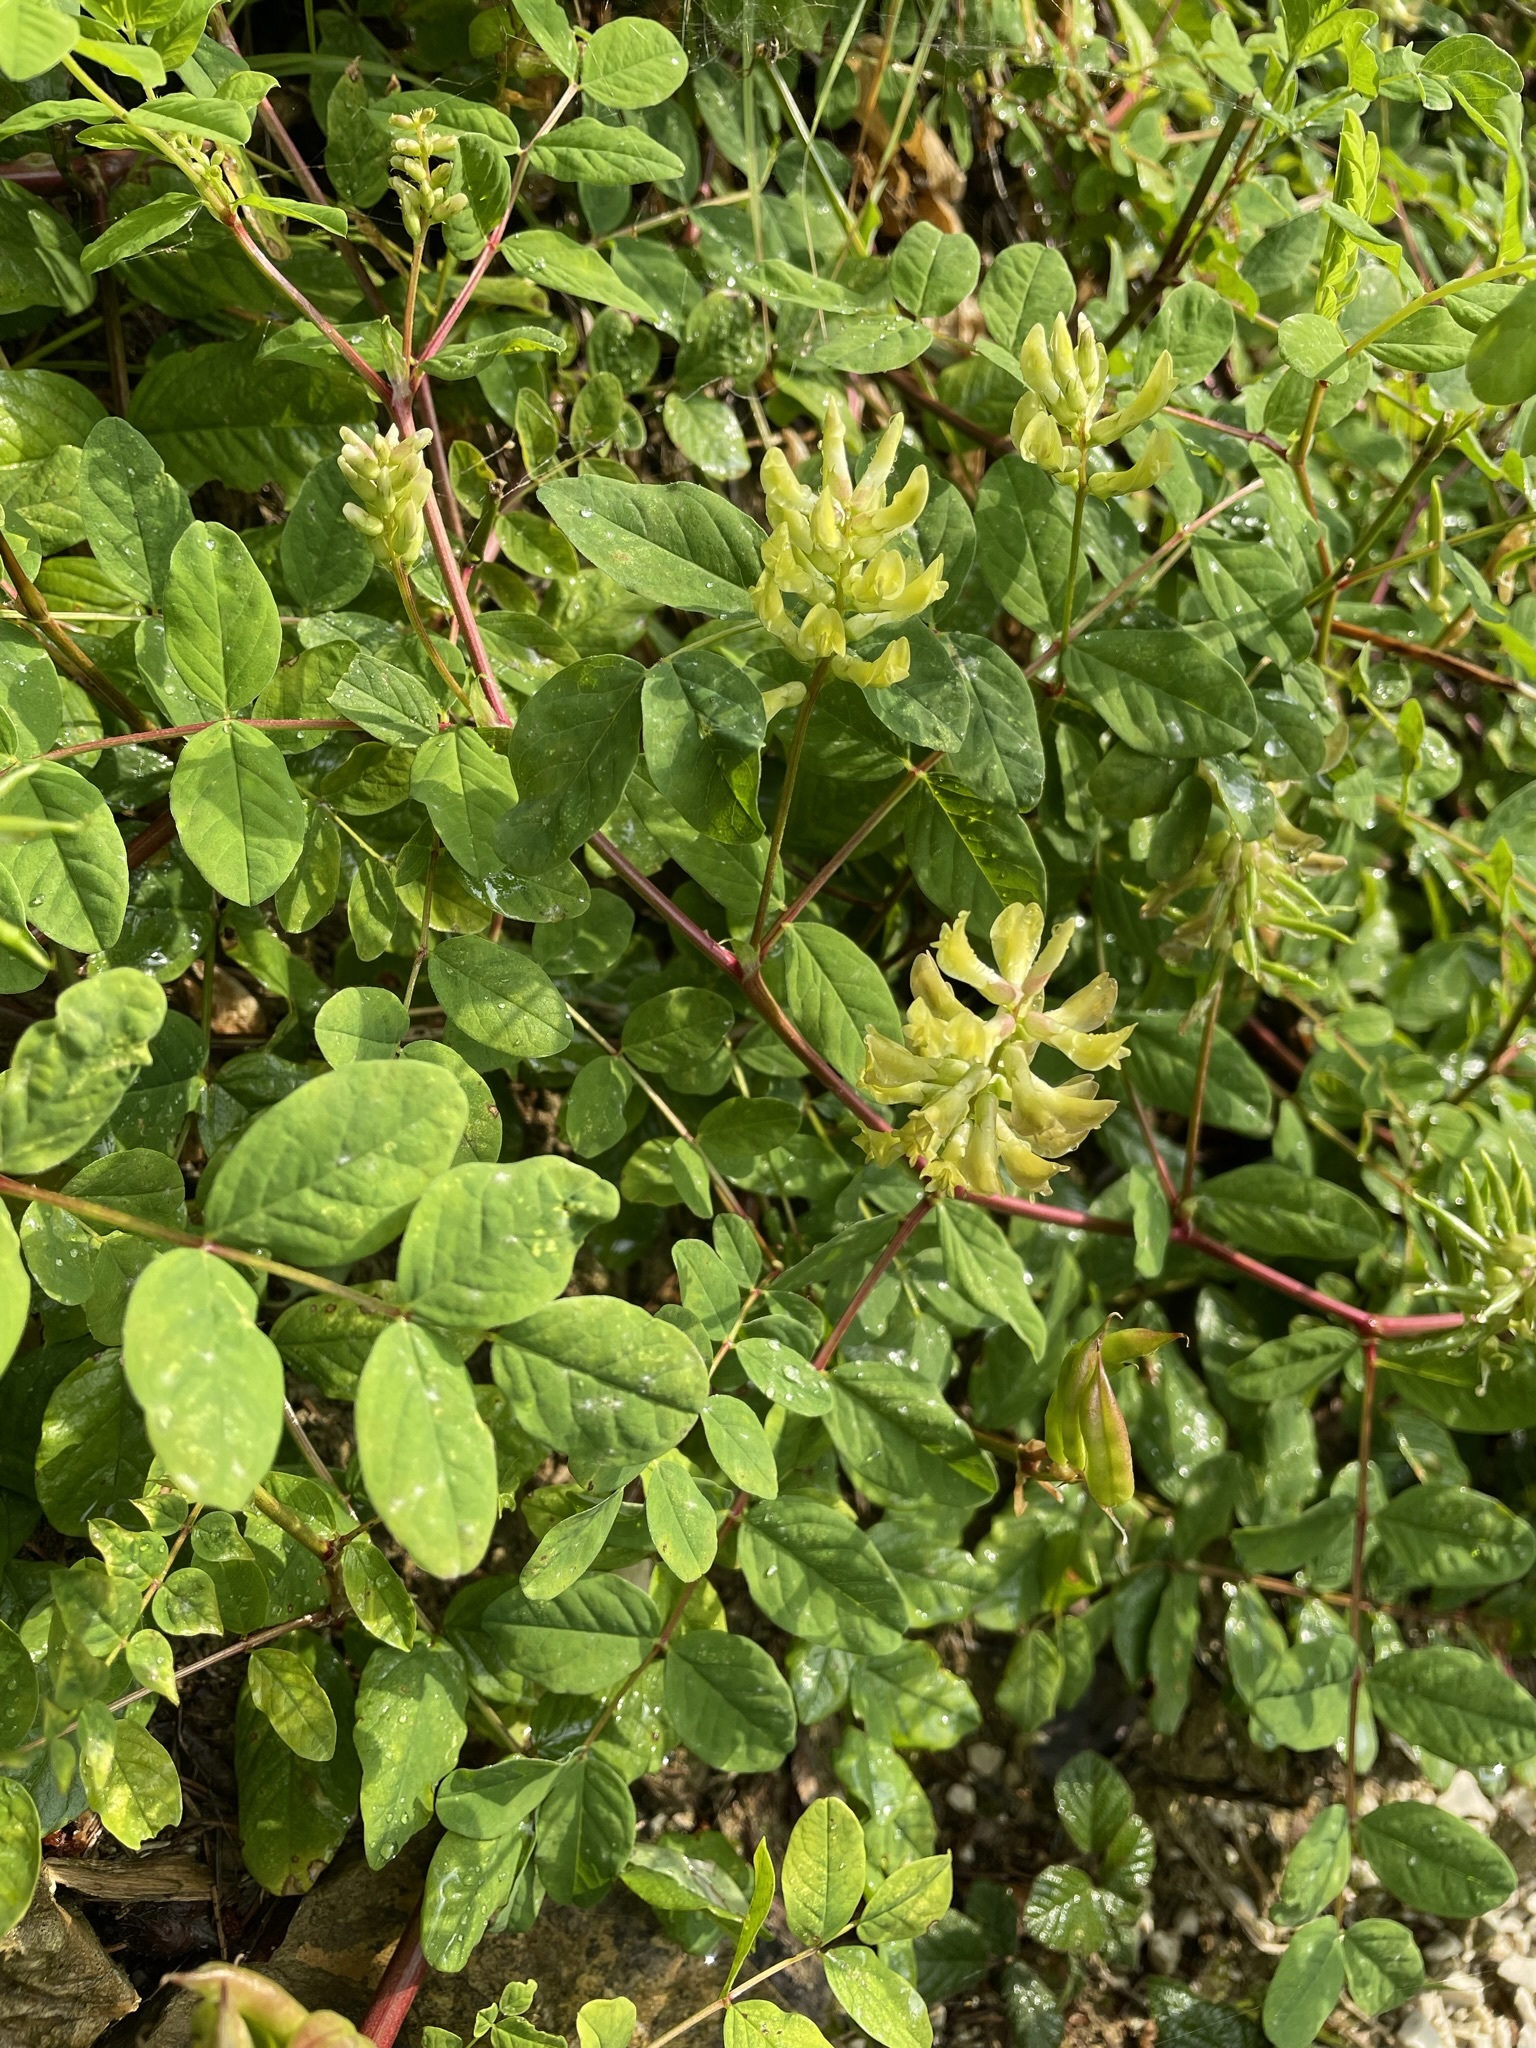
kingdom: Plantae
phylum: Tracheophyta
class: Magnoliopsida
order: Fabales
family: Fabaceae
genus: Astragalus
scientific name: Astragalus glycyphyllos
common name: Wild liquorice
